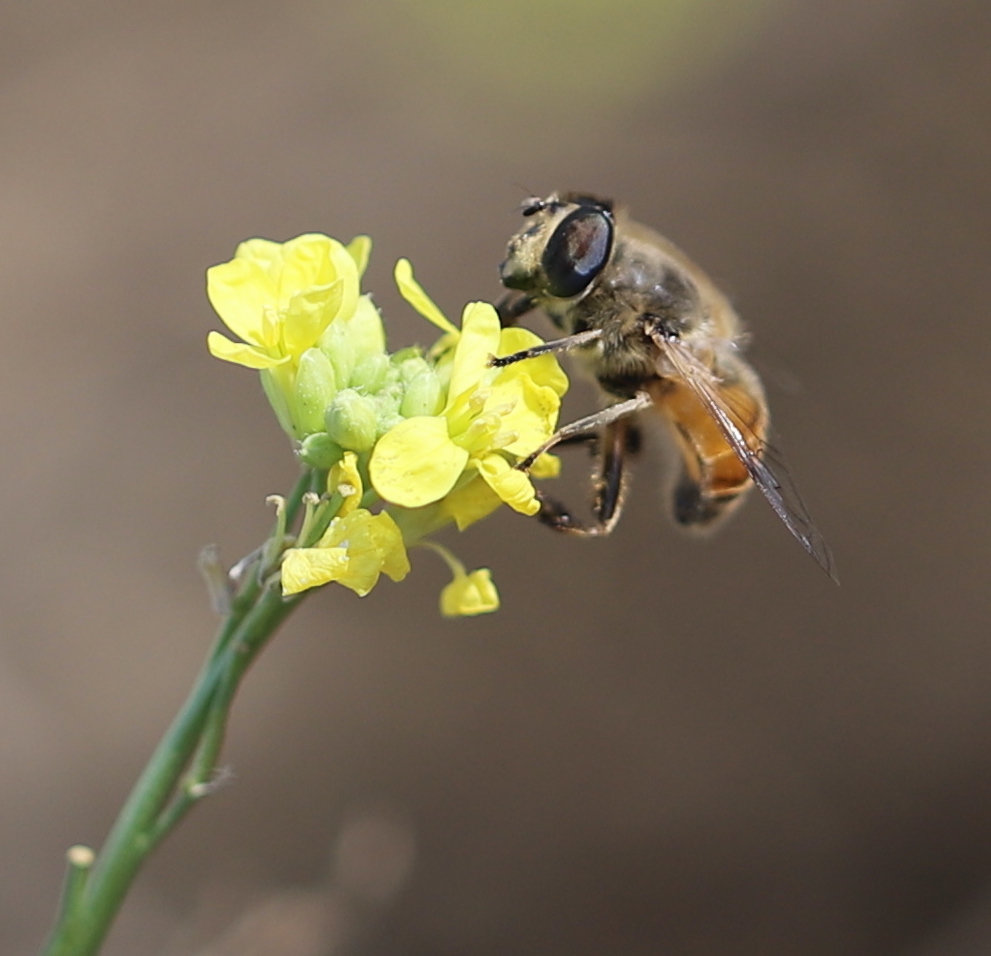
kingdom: Animalia
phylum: Arthropoda
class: Insecta
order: Diptera
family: Syrphidae
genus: Eristalis
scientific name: Eristalis tenax
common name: Drone fly
